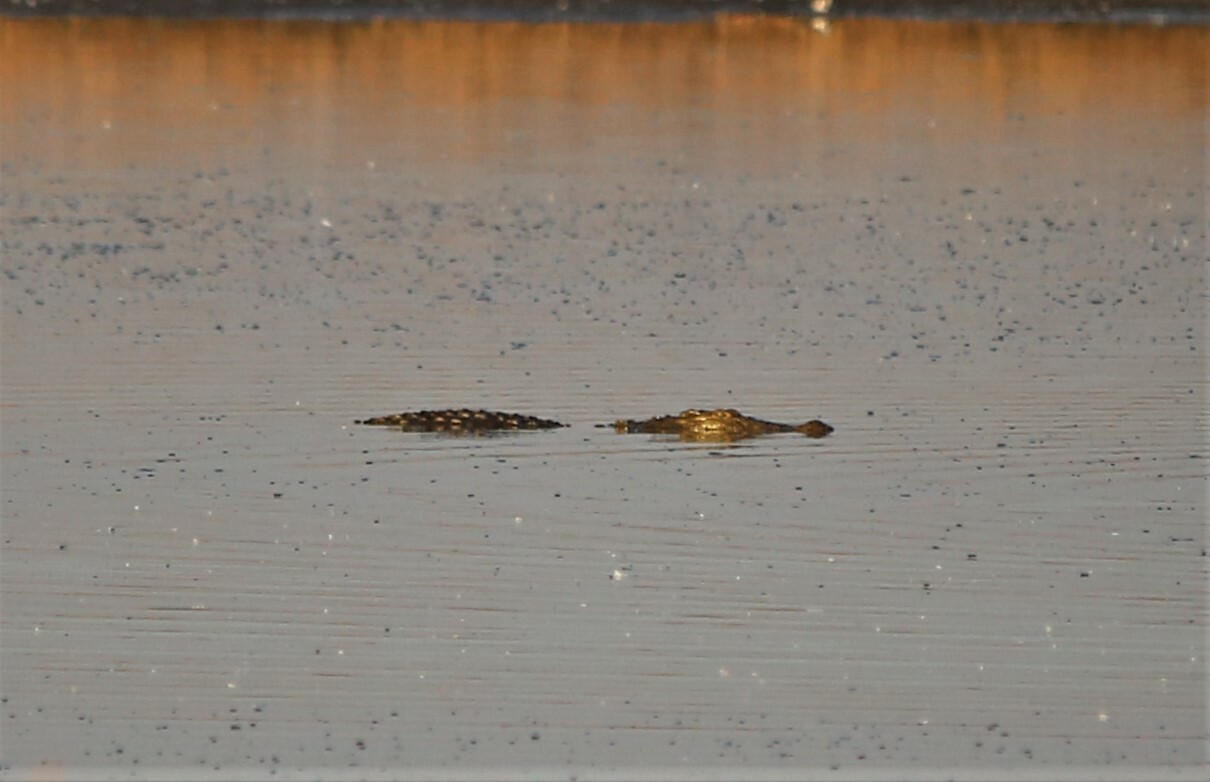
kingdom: Animalia
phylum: Chordata
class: Crocodylia
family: Crocodylidae
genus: Crocodylus
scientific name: Crocodylus niloticus
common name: Nile crocodile
